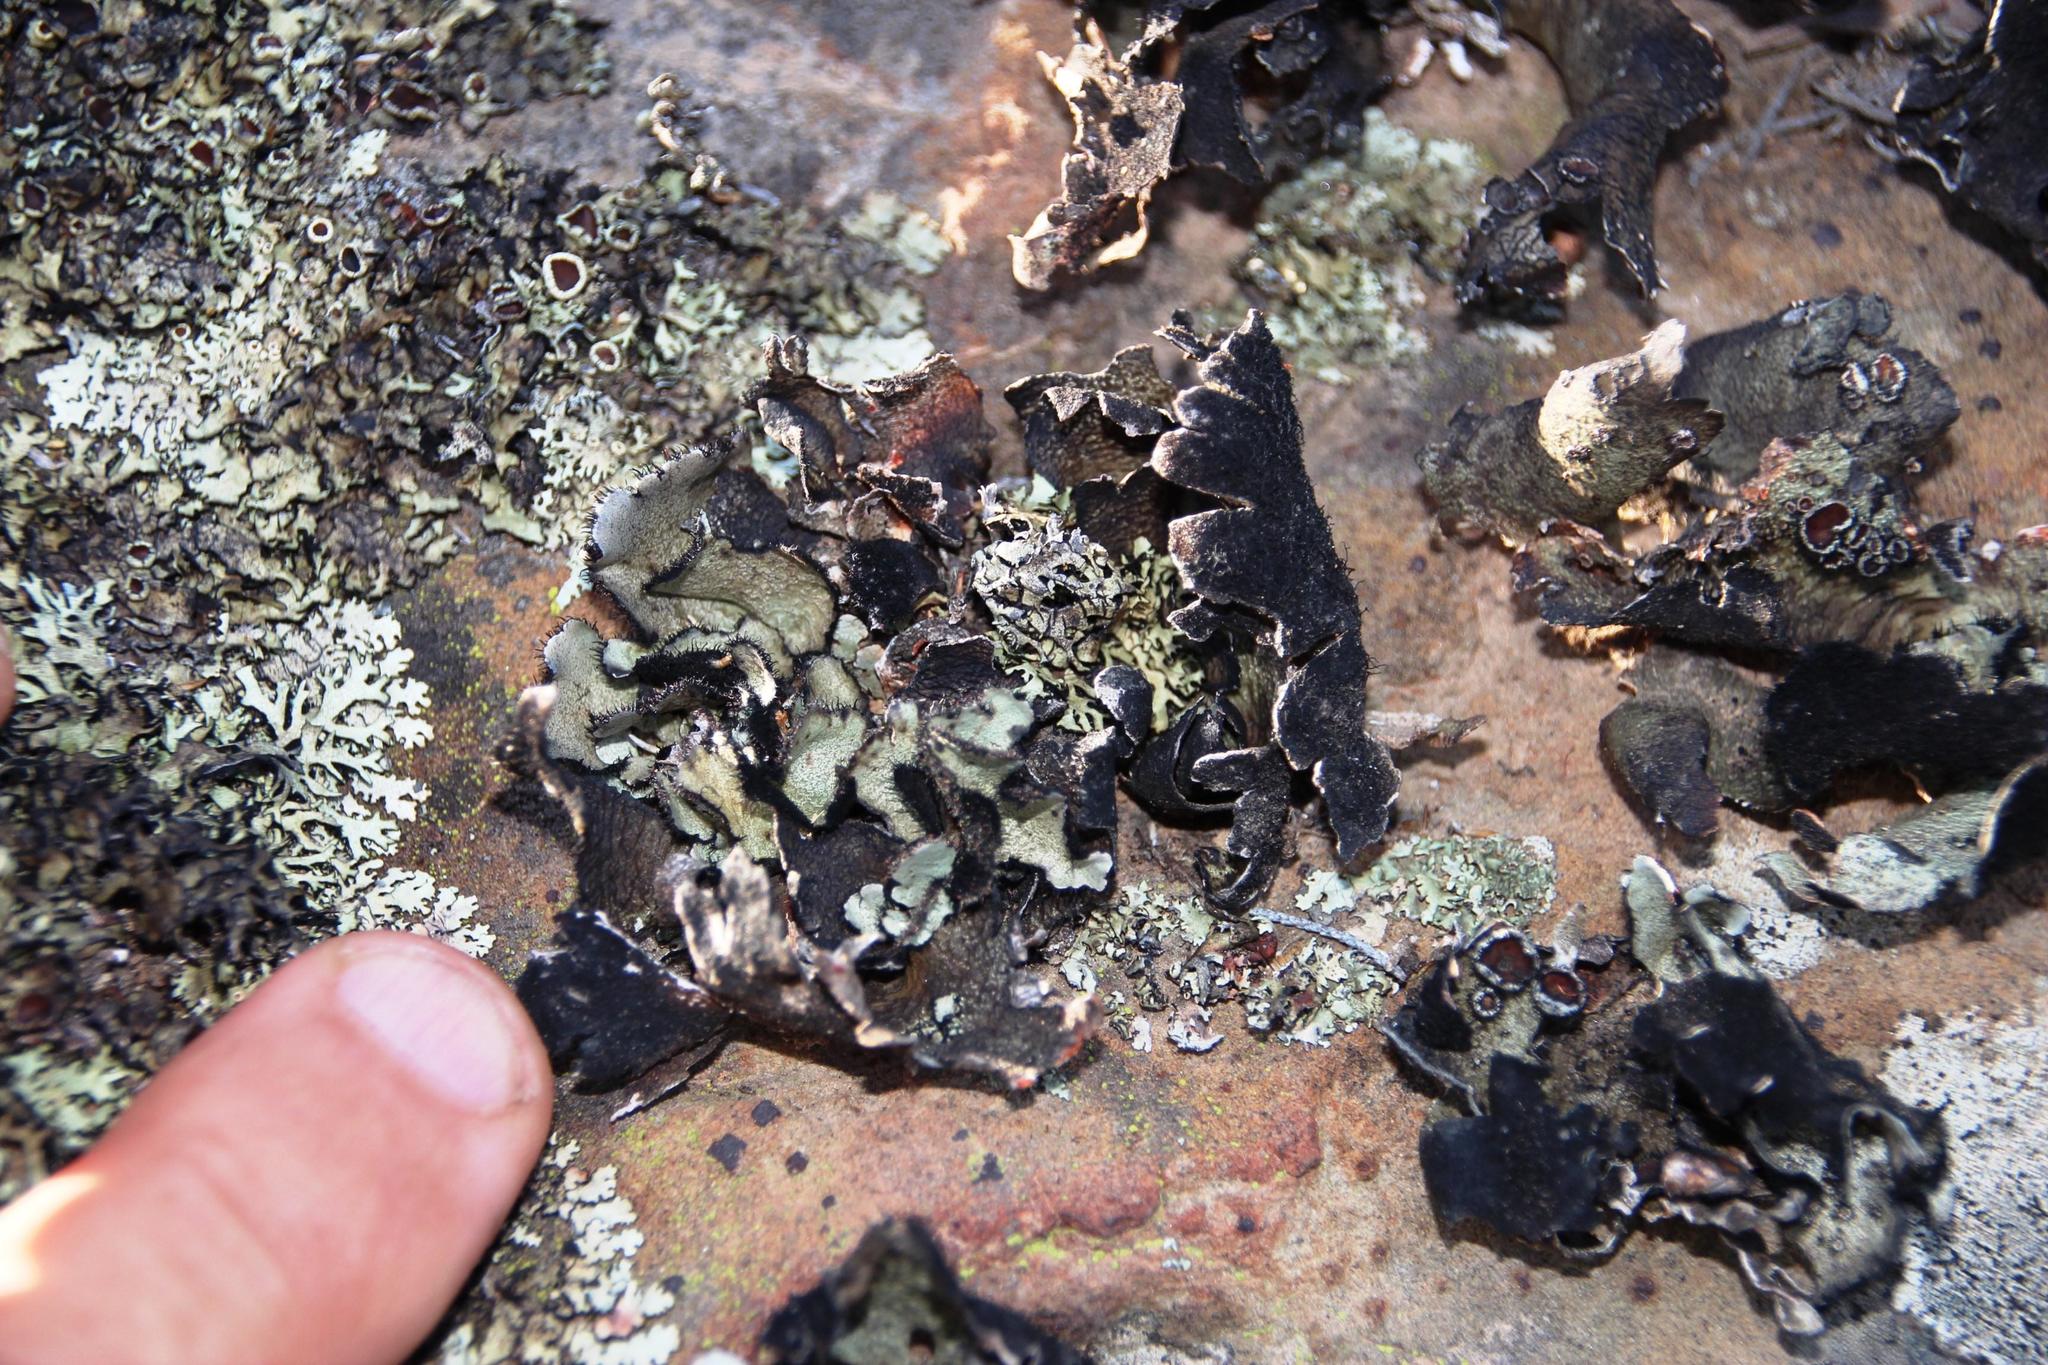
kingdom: Fungi
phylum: Ascomycota
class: Lecanoromycetes
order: Lecanorales
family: Parmeliaceae
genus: Xanthoparmelia
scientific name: Xanthoparmelia hottentotta
